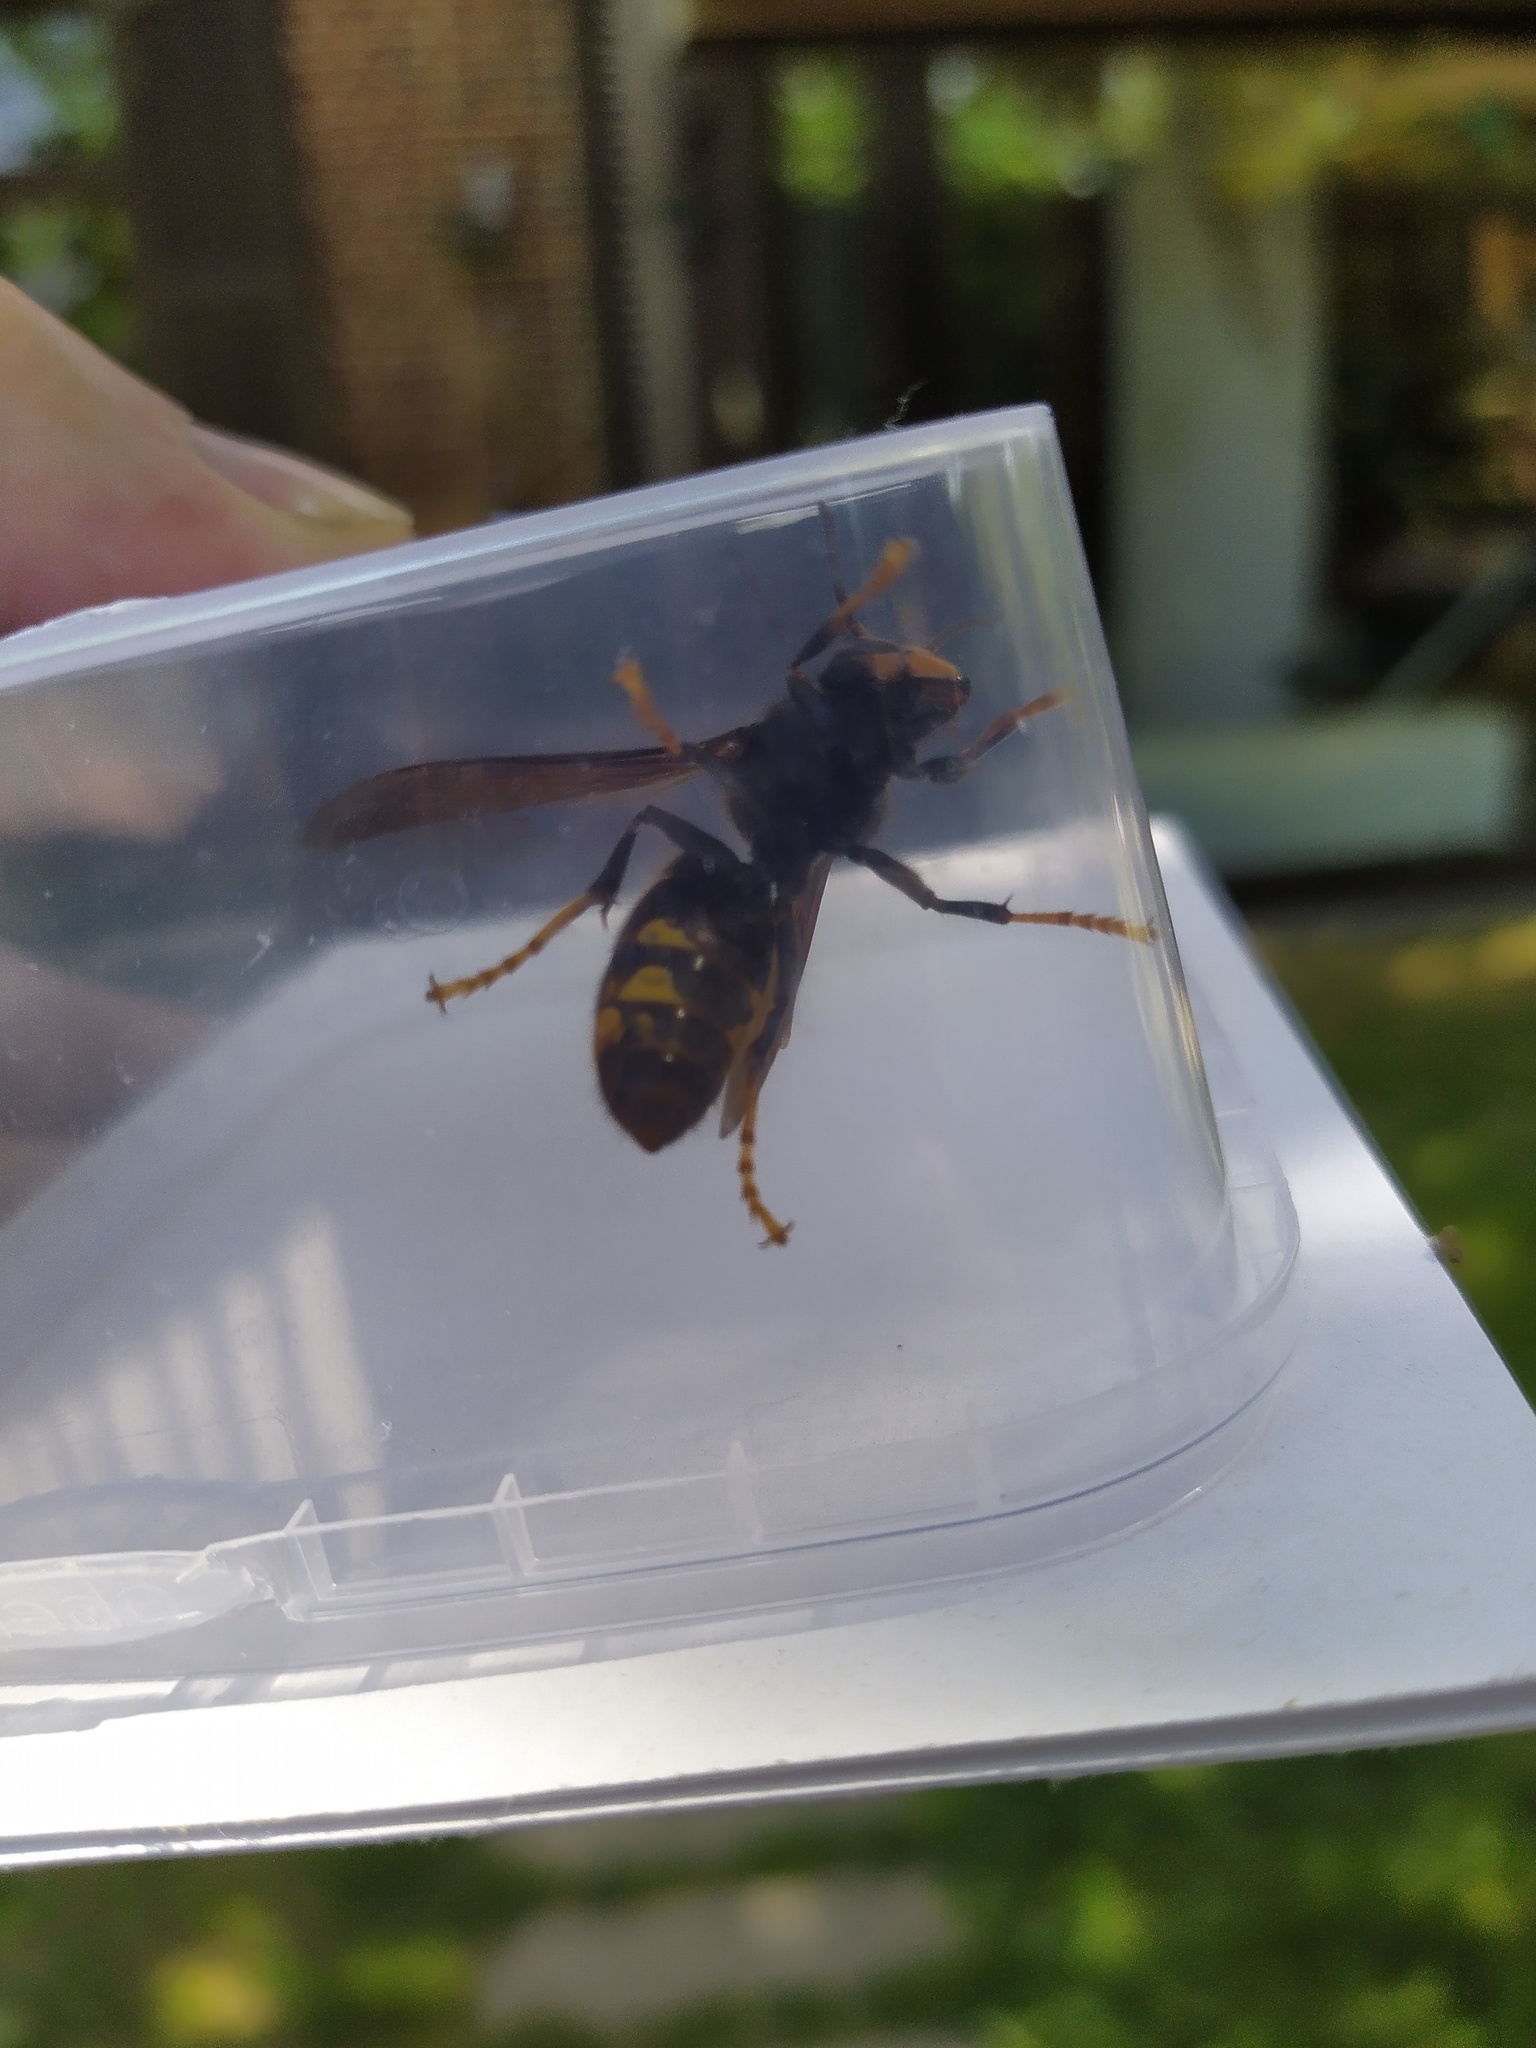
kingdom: Animalia
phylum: Arthropoda
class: Insecta
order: Hymenoptera
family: Vespidae
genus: Vespa
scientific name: Vespa velutina
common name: Asian hornet
